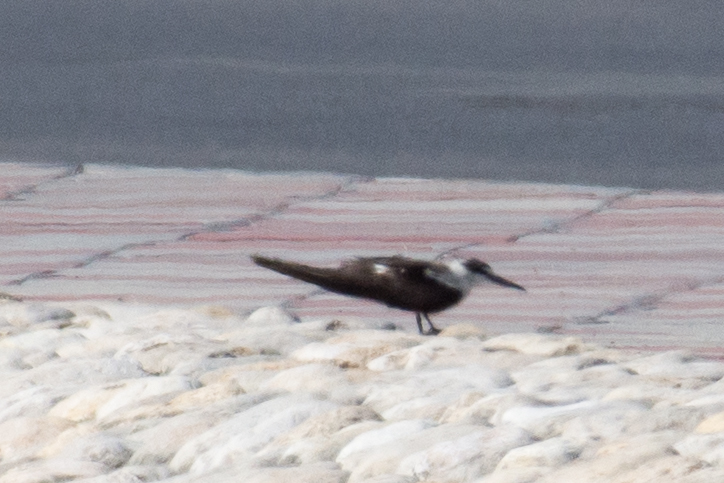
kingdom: Animalia
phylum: Chordata
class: Aves
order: Charadriiformes
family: Laridae
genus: Onychoprion
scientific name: Onychoprion anaethetus
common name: Bridled tern
